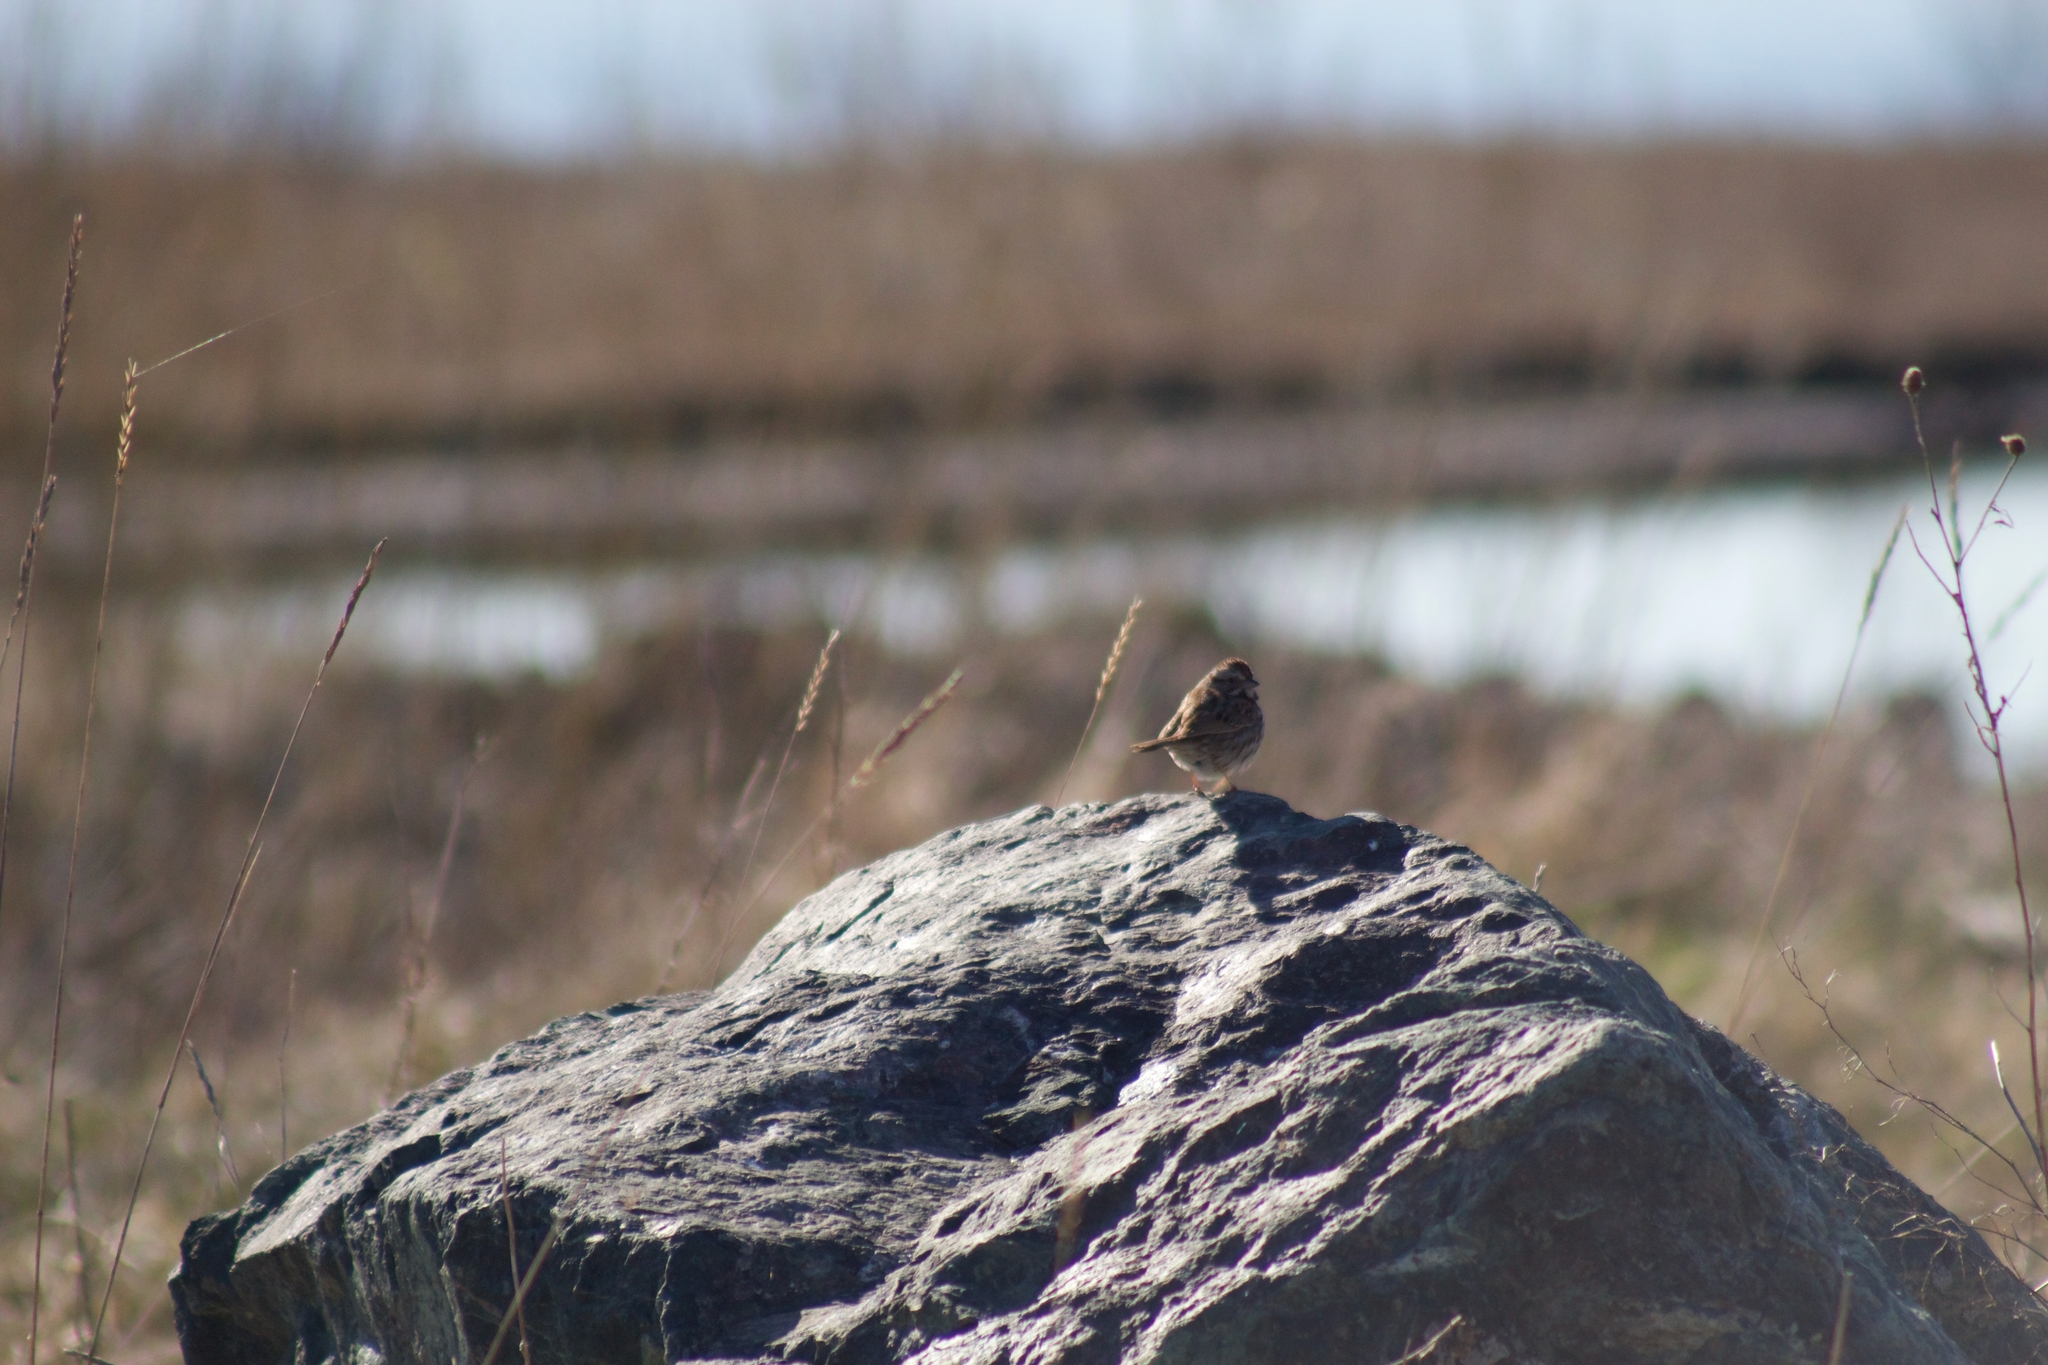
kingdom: Animalia
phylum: Chordata
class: Aves
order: Passeriformes
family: Passerellidae
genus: Melospiza
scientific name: Melospiza melodia
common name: Song sparrow
